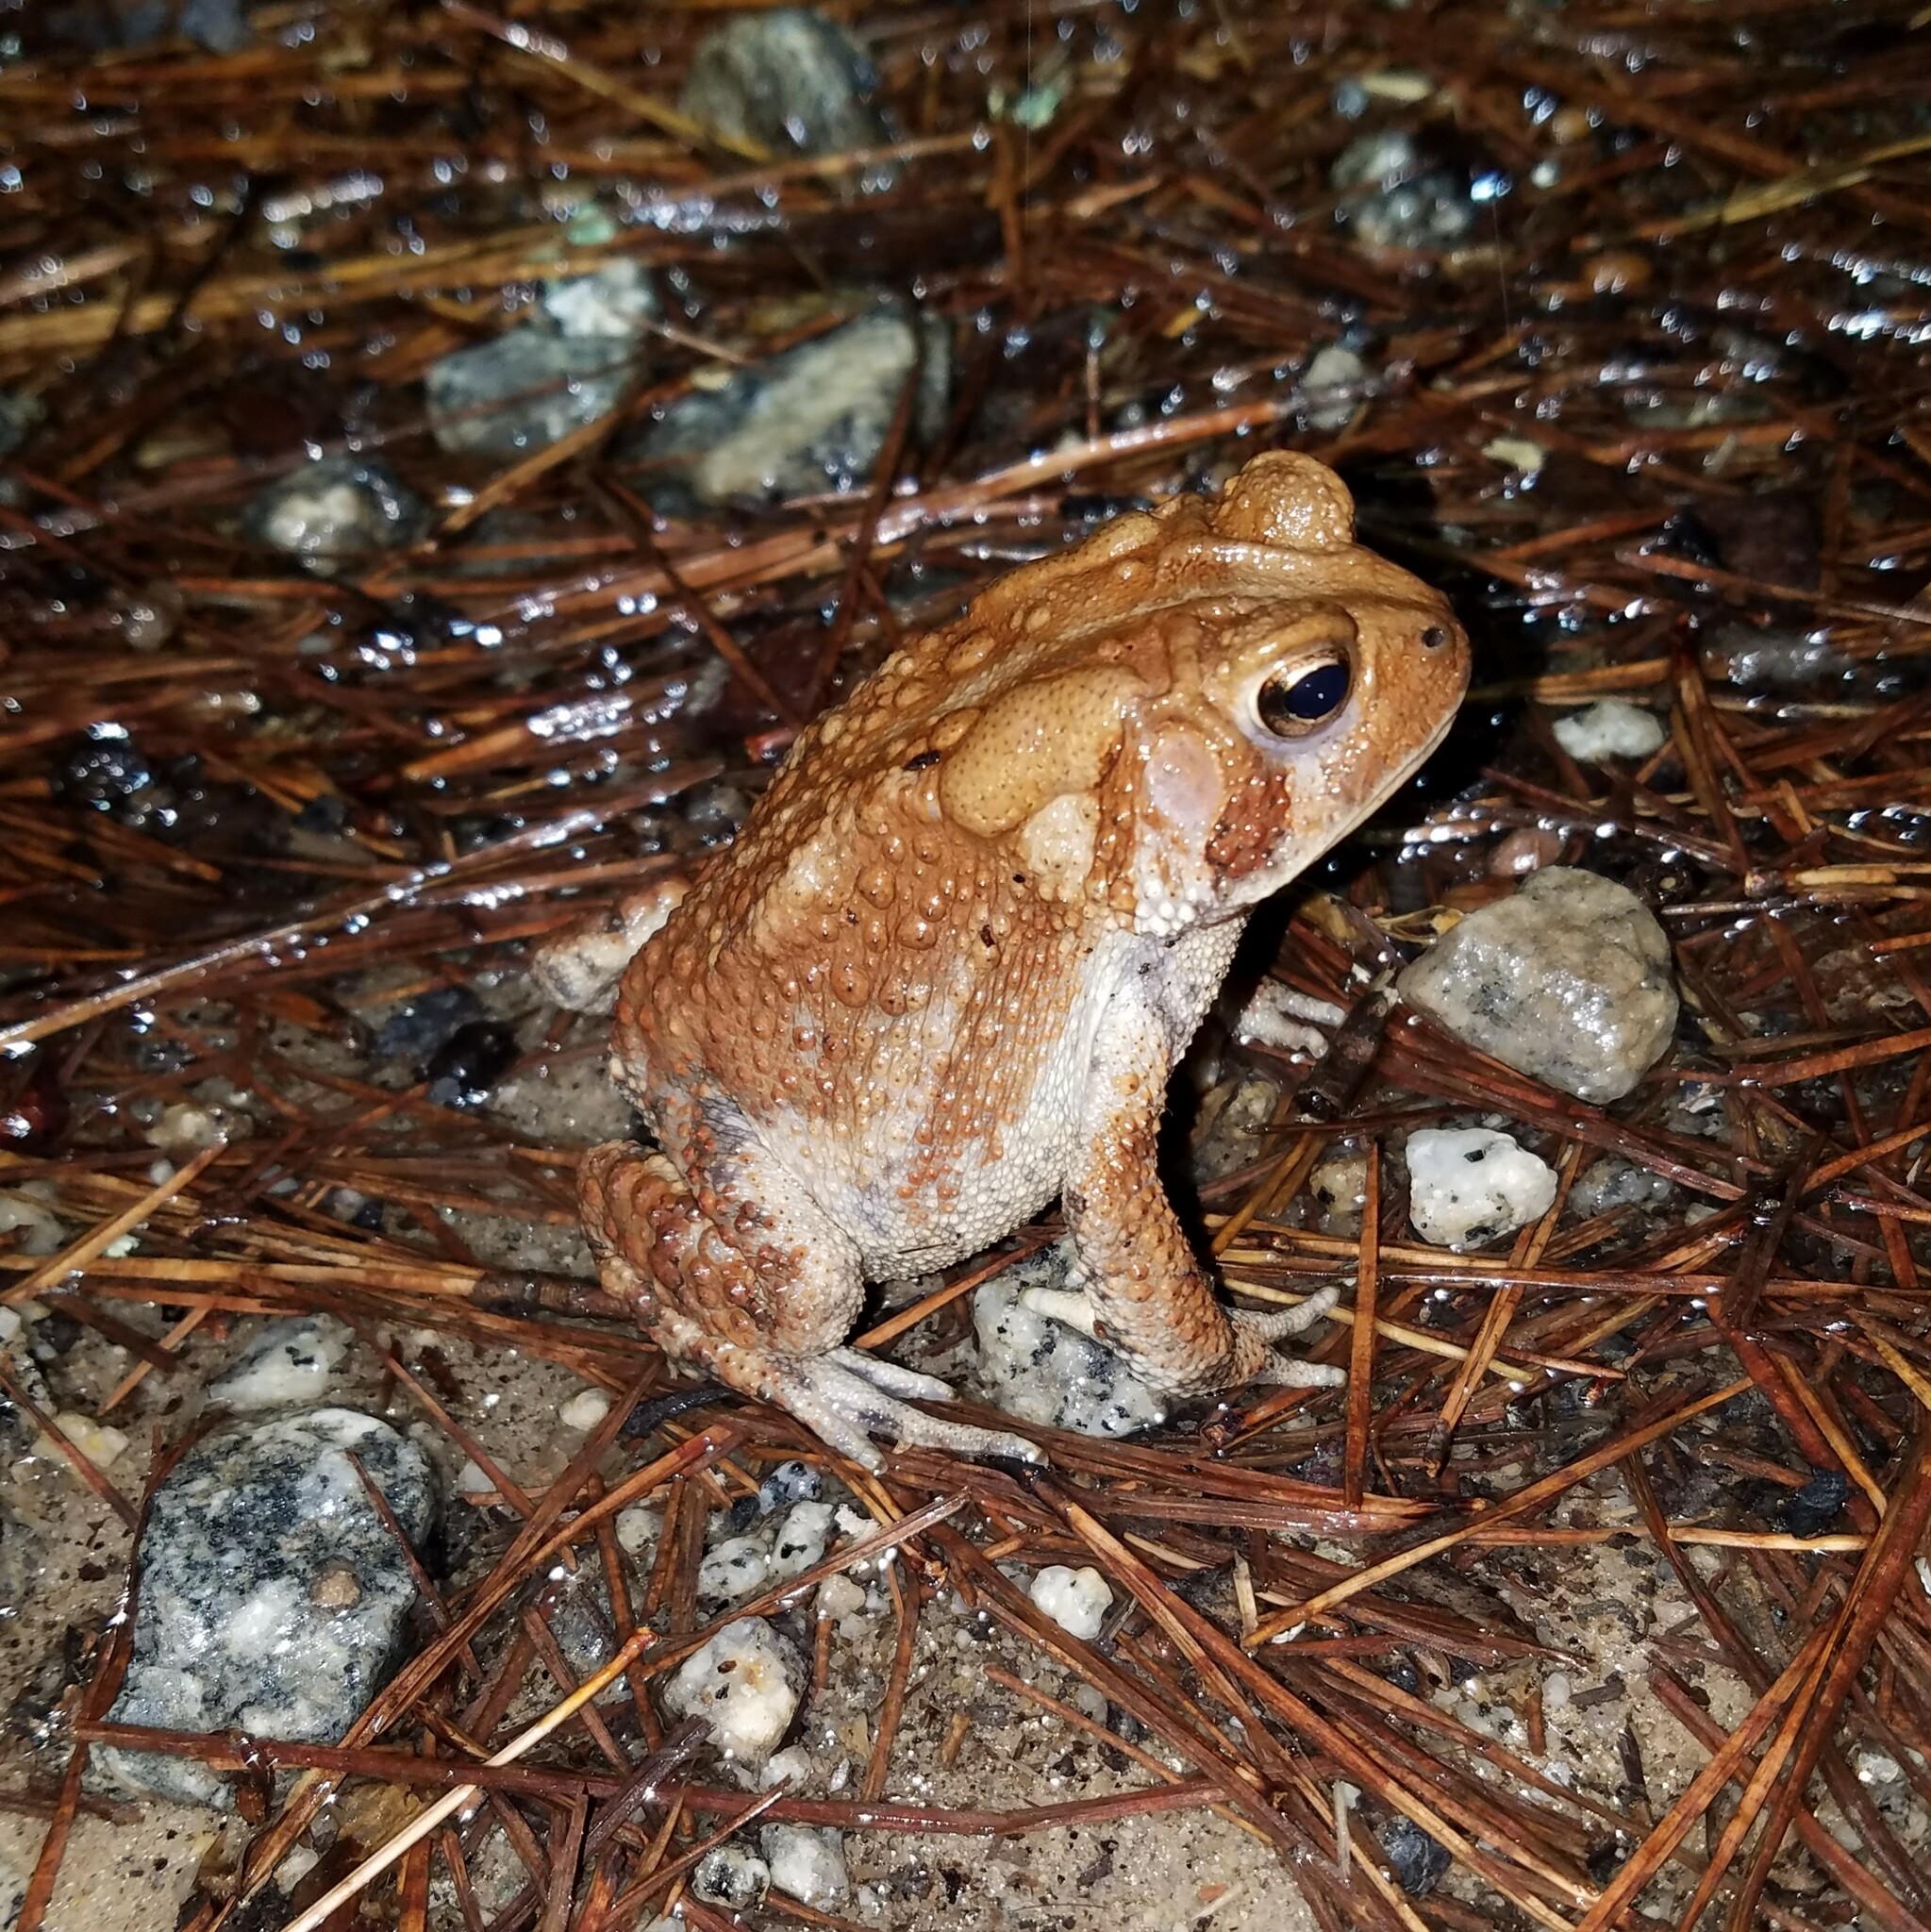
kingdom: Animalia
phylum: Chordata
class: Amphibia
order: Anura
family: Bufonidae
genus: Anaxyrus
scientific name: Anaxyrus americanus
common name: American toad
